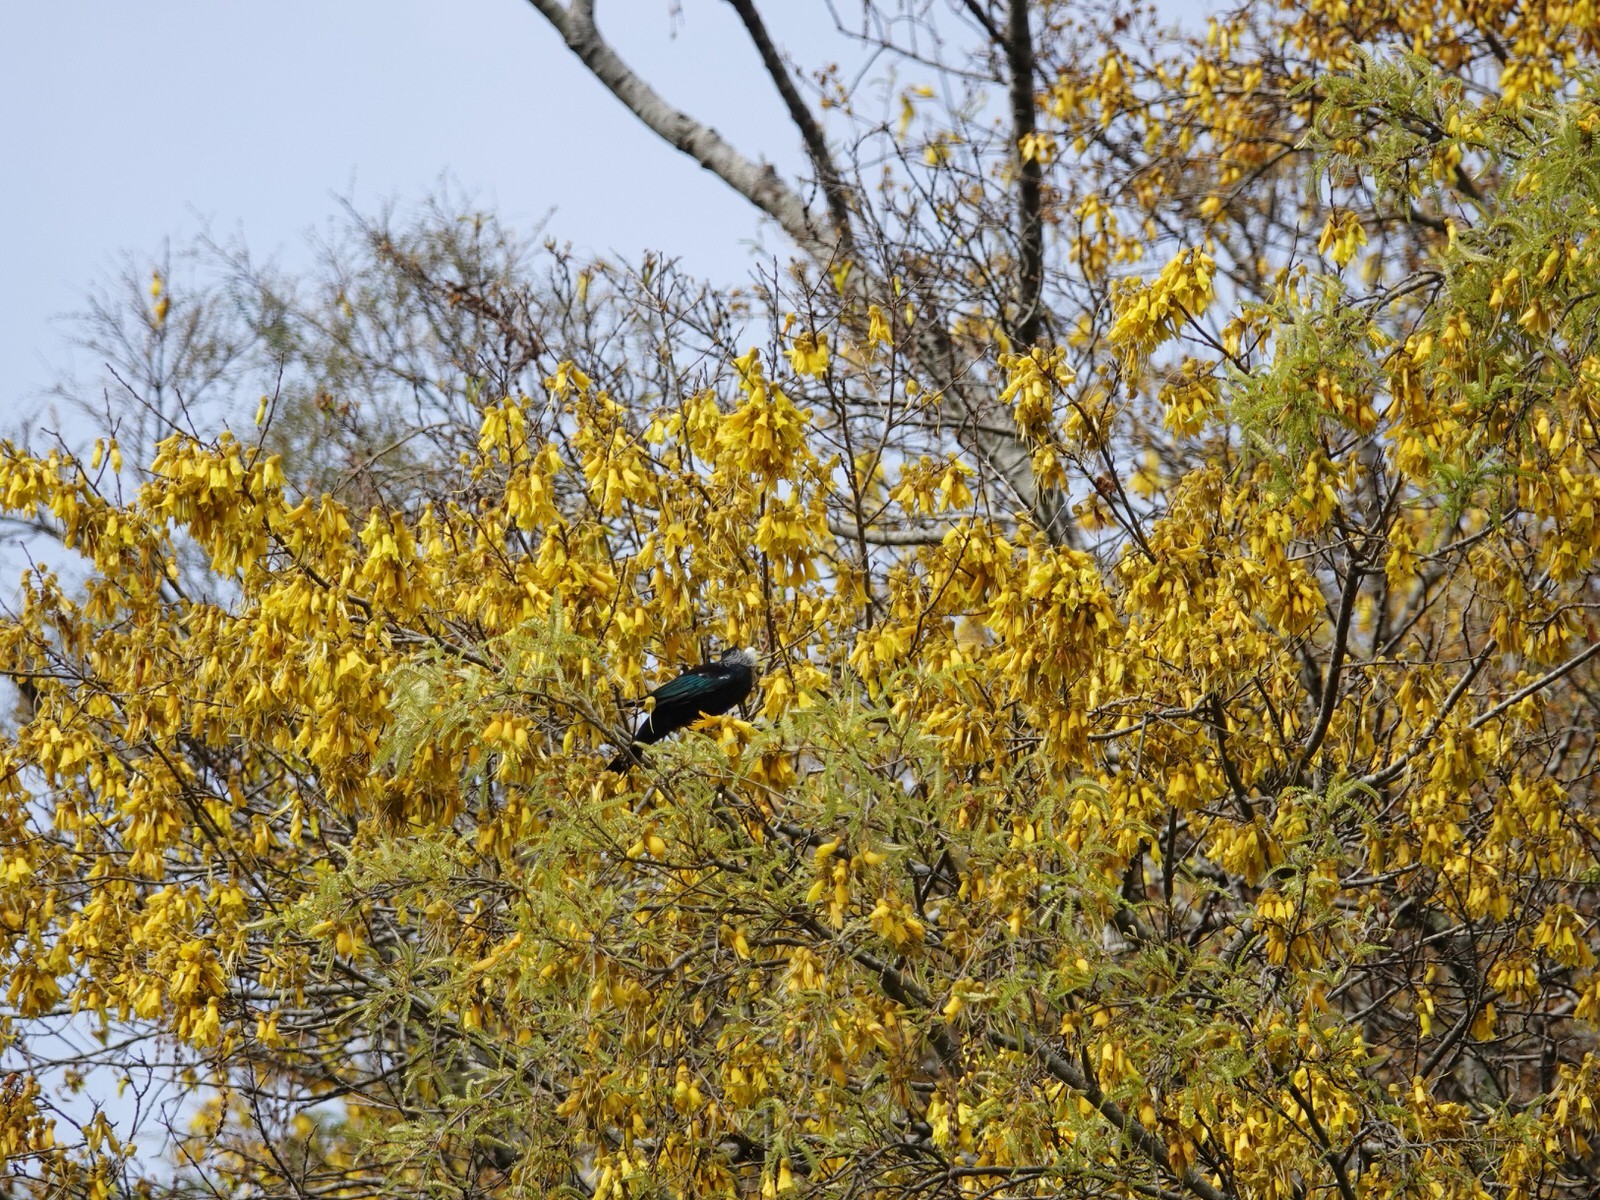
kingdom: Animalia
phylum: Chordata
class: Aves
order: Passeriformes
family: Meliphagidae
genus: Prosthemadera
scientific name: Prosthemadera novaeseelandiae
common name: Tui
